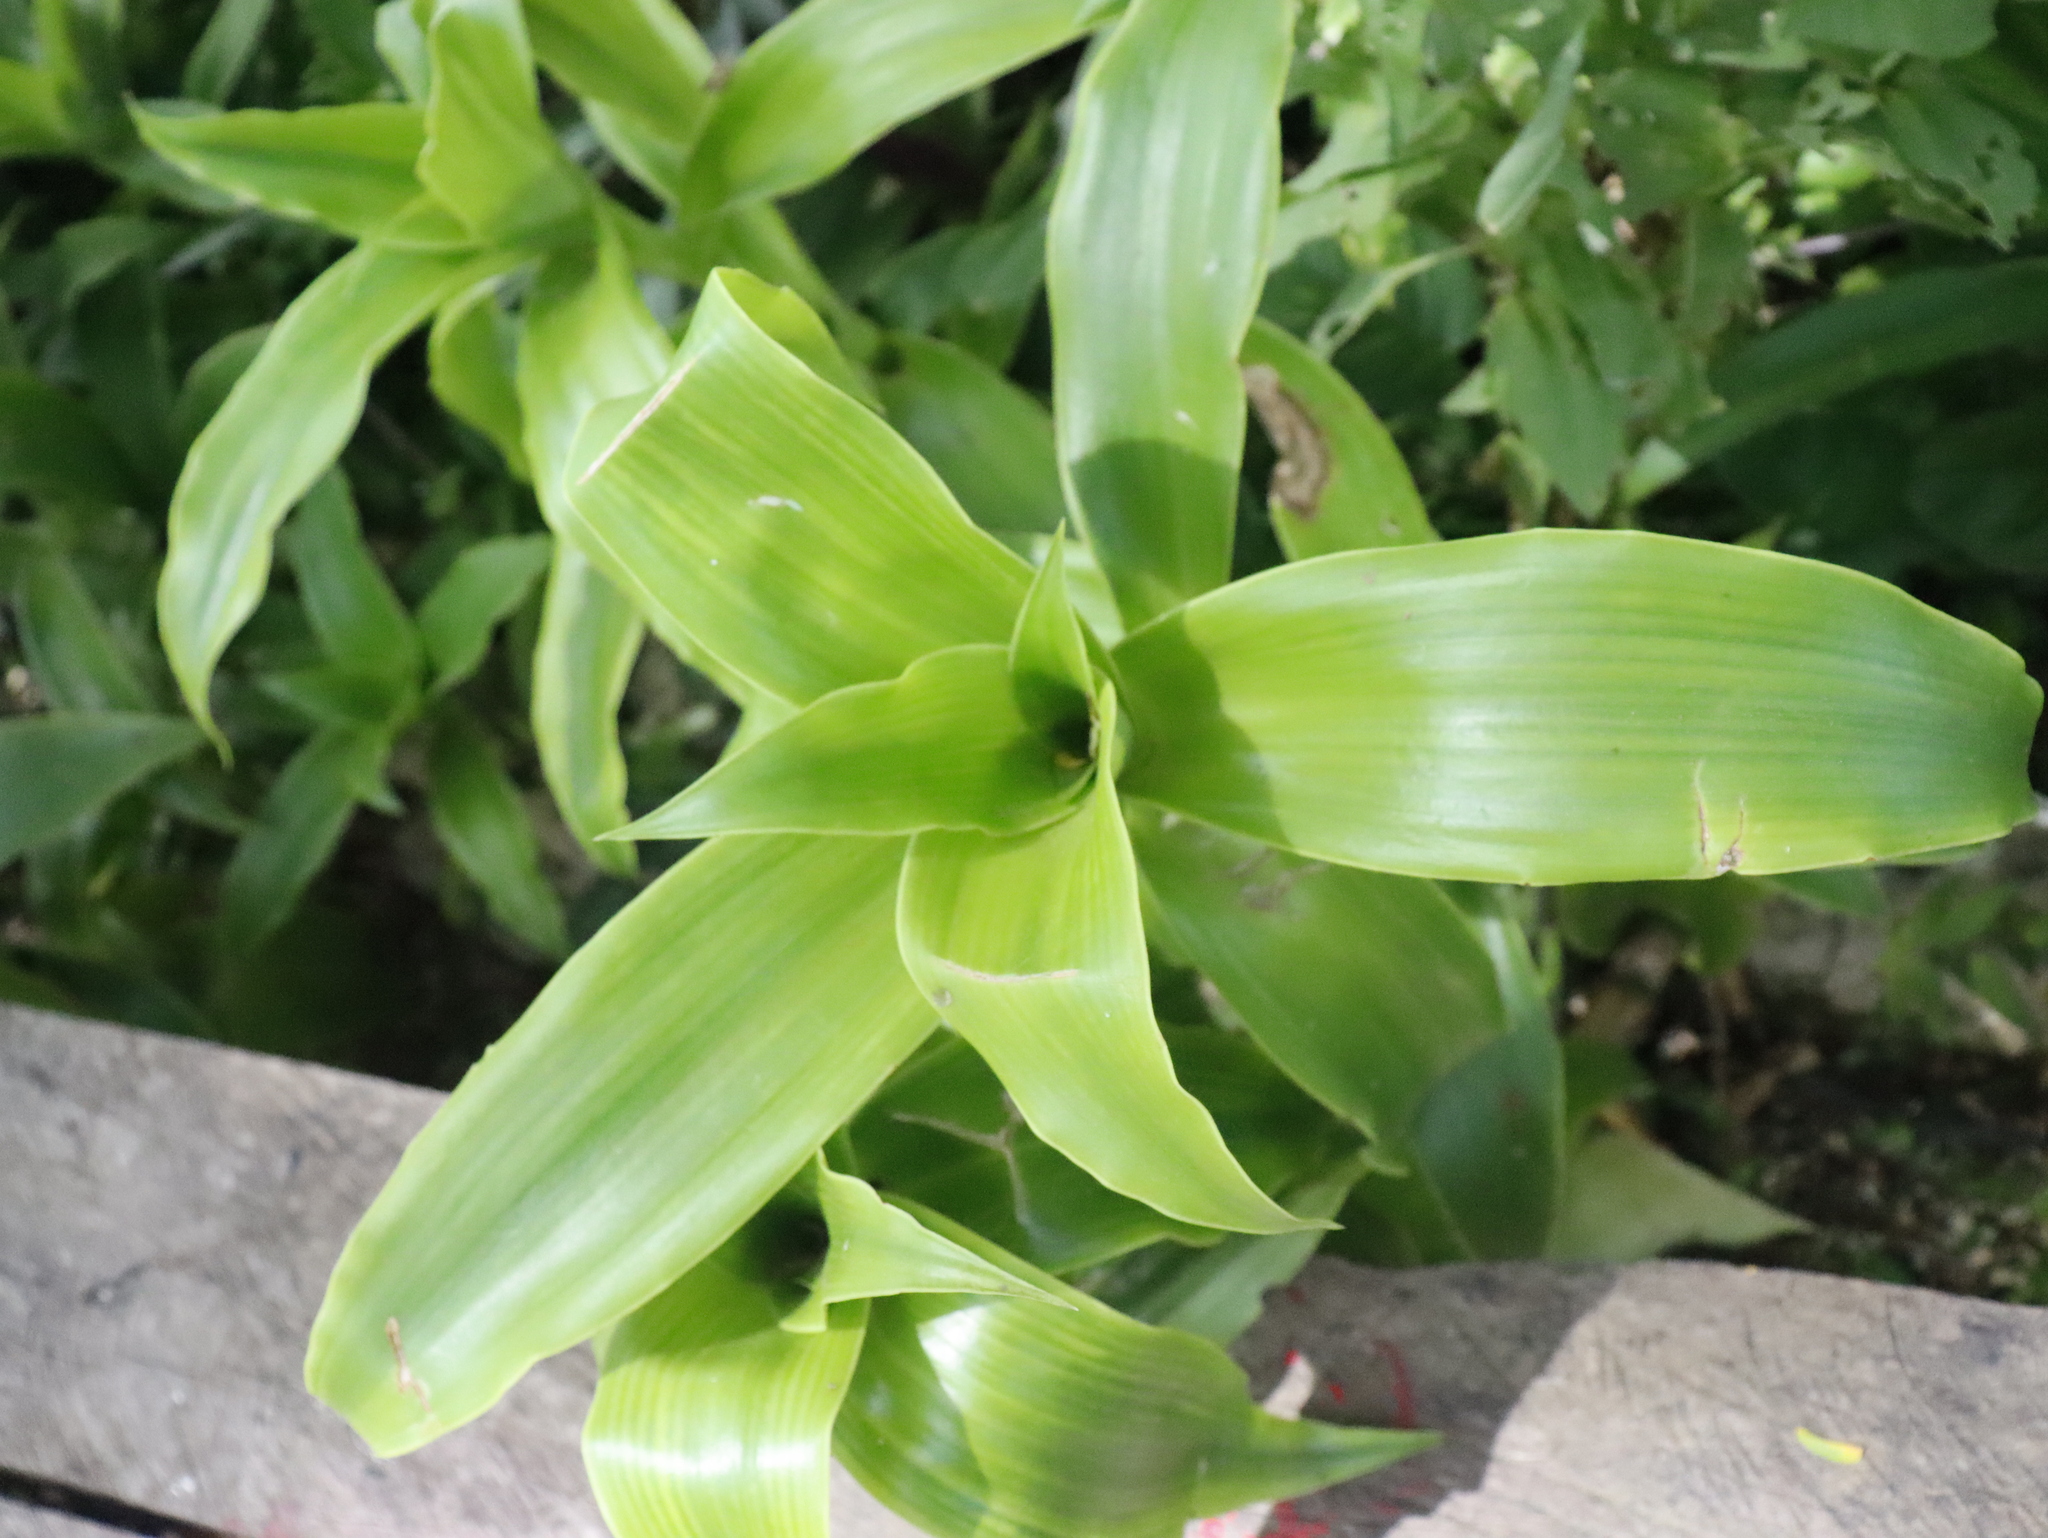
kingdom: Plantae
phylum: Tracheophyta
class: Liliopsida
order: Commelinales
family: Commelinaceae
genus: Callisia
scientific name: Callisia fragrans
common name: Basketplant
